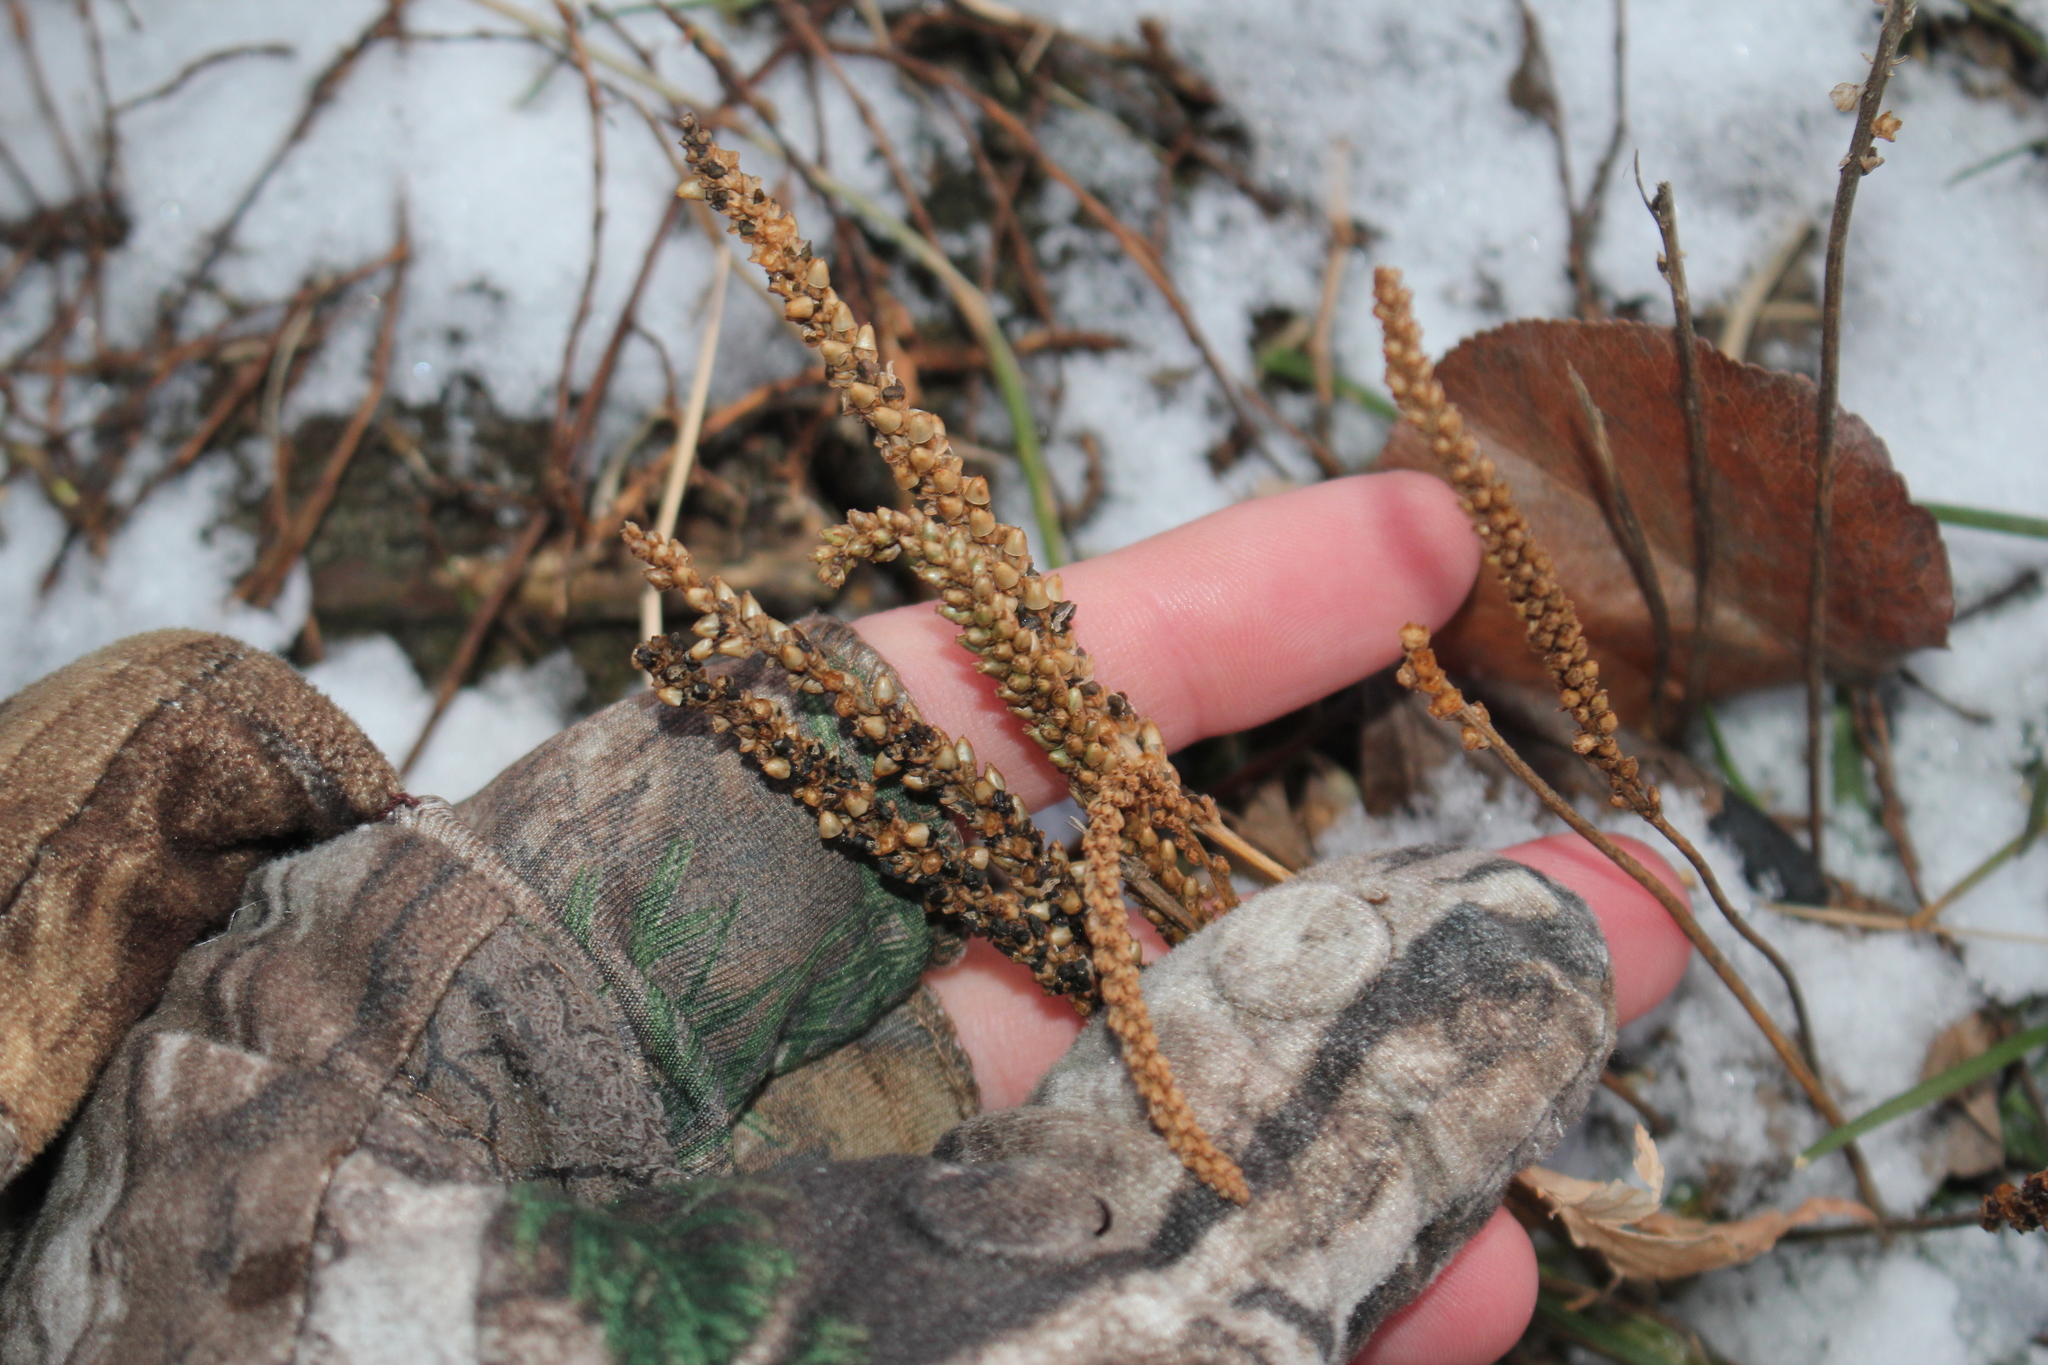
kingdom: Plantae
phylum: Tracheophyta
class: Magnoliopsida
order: Lamiales
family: Plantaginaceae
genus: Plantago
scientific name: Plantago major
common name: Common plantain
